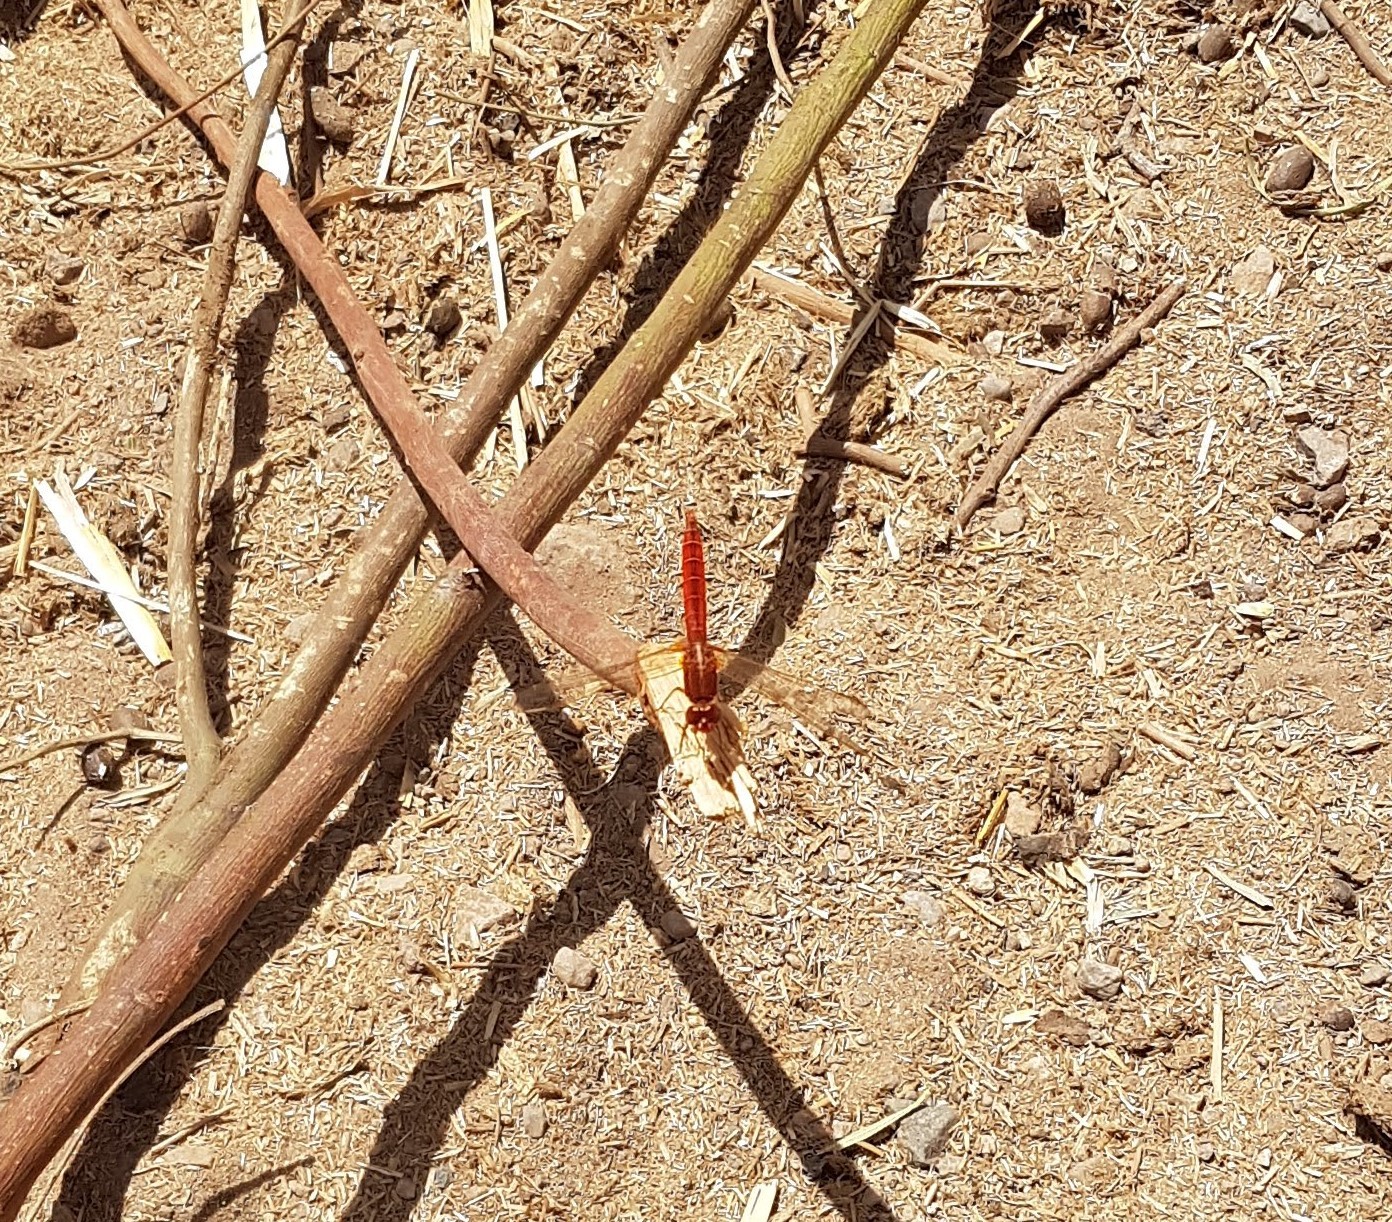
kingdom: Animalia
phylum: Arthropoda
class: Insecta
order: Odonata
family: Libellulidae
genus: Crocothemis
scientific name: Crocothemis erythraea
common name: Scarlet dragonfly
